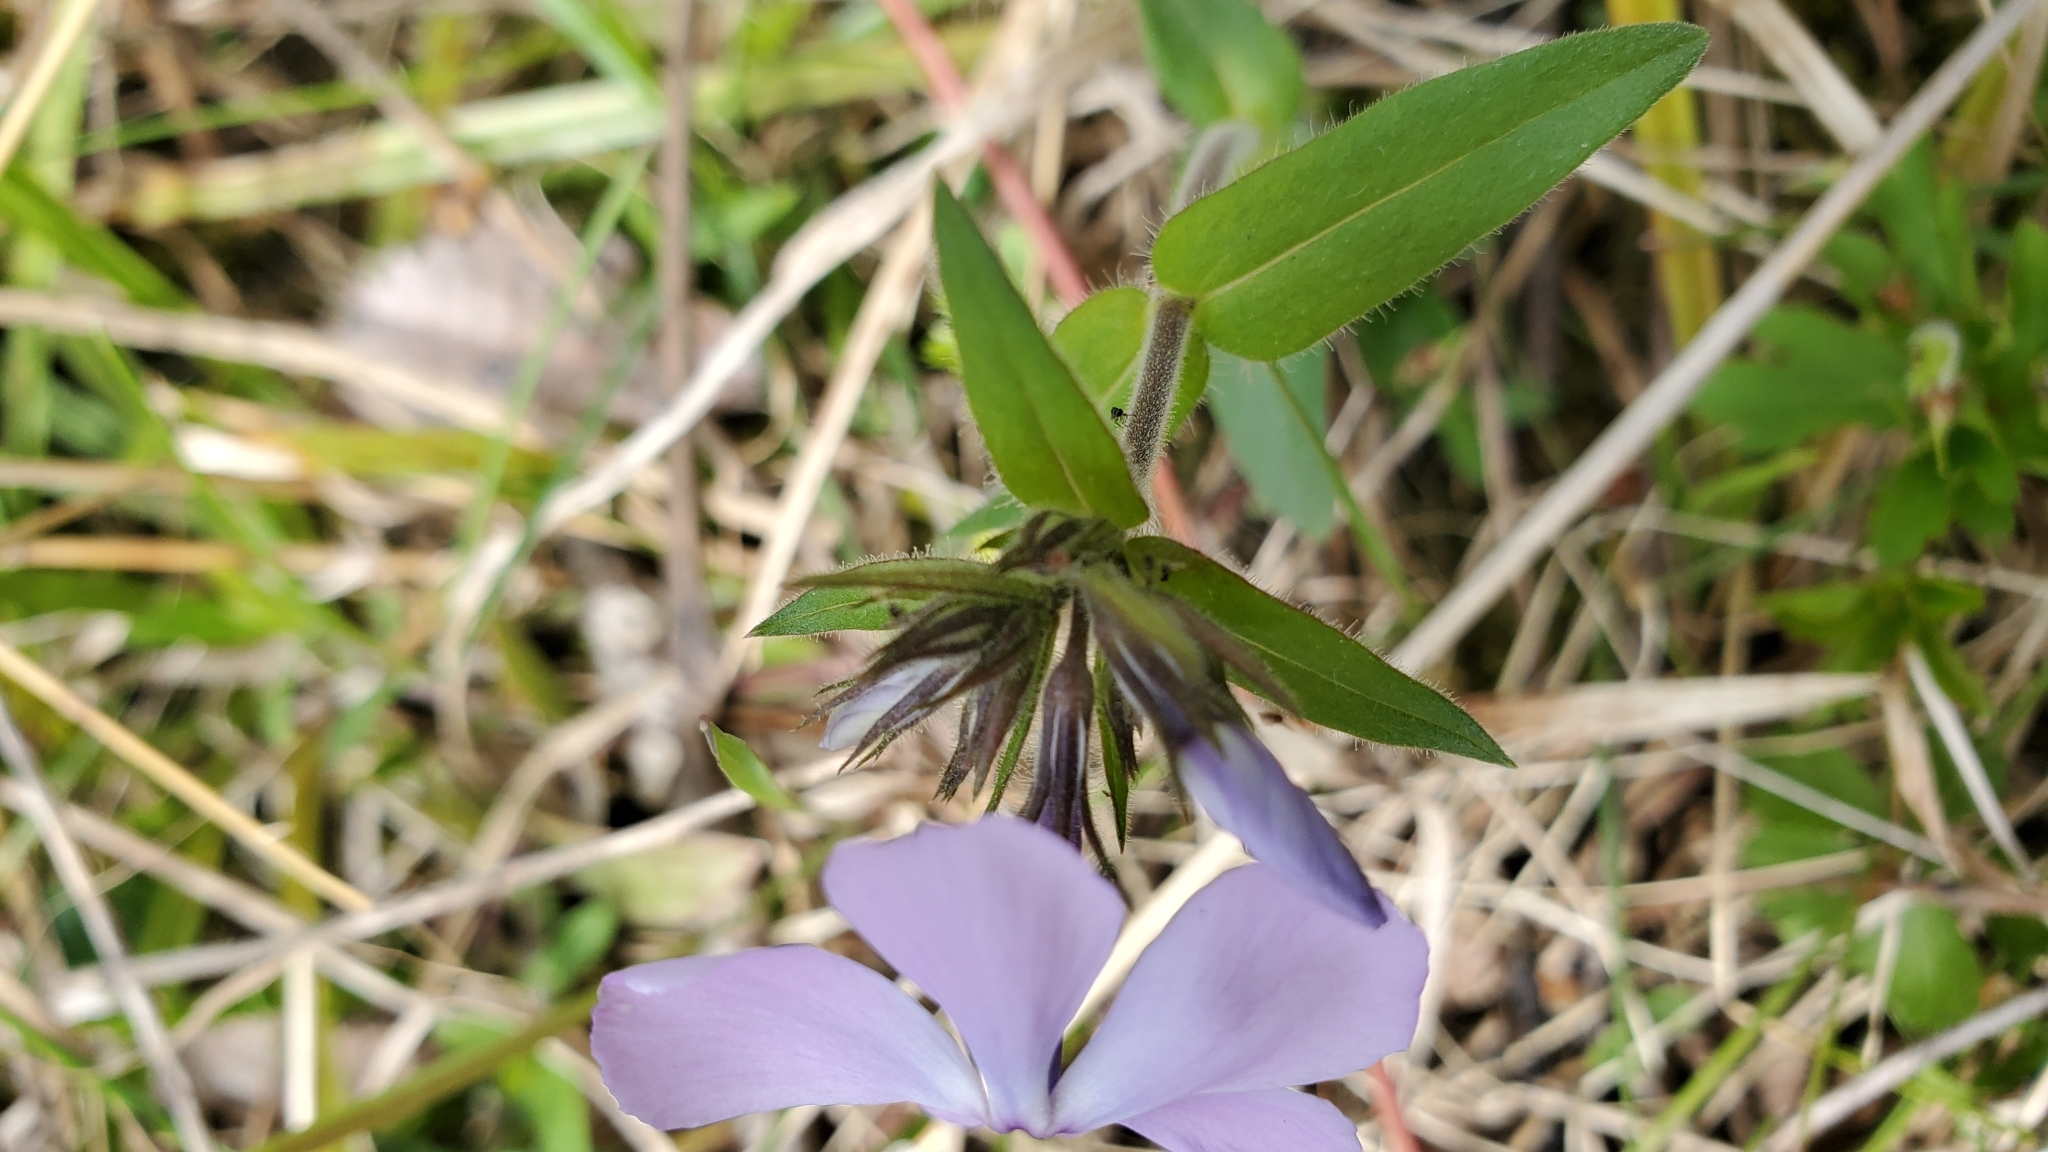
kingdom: Plantae
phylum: Tracheophyta
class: Magnoliopsida
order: Ericales
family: Polemoniaceae
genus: Phlox
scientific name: Phlox divaricata
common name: Blue phlox
